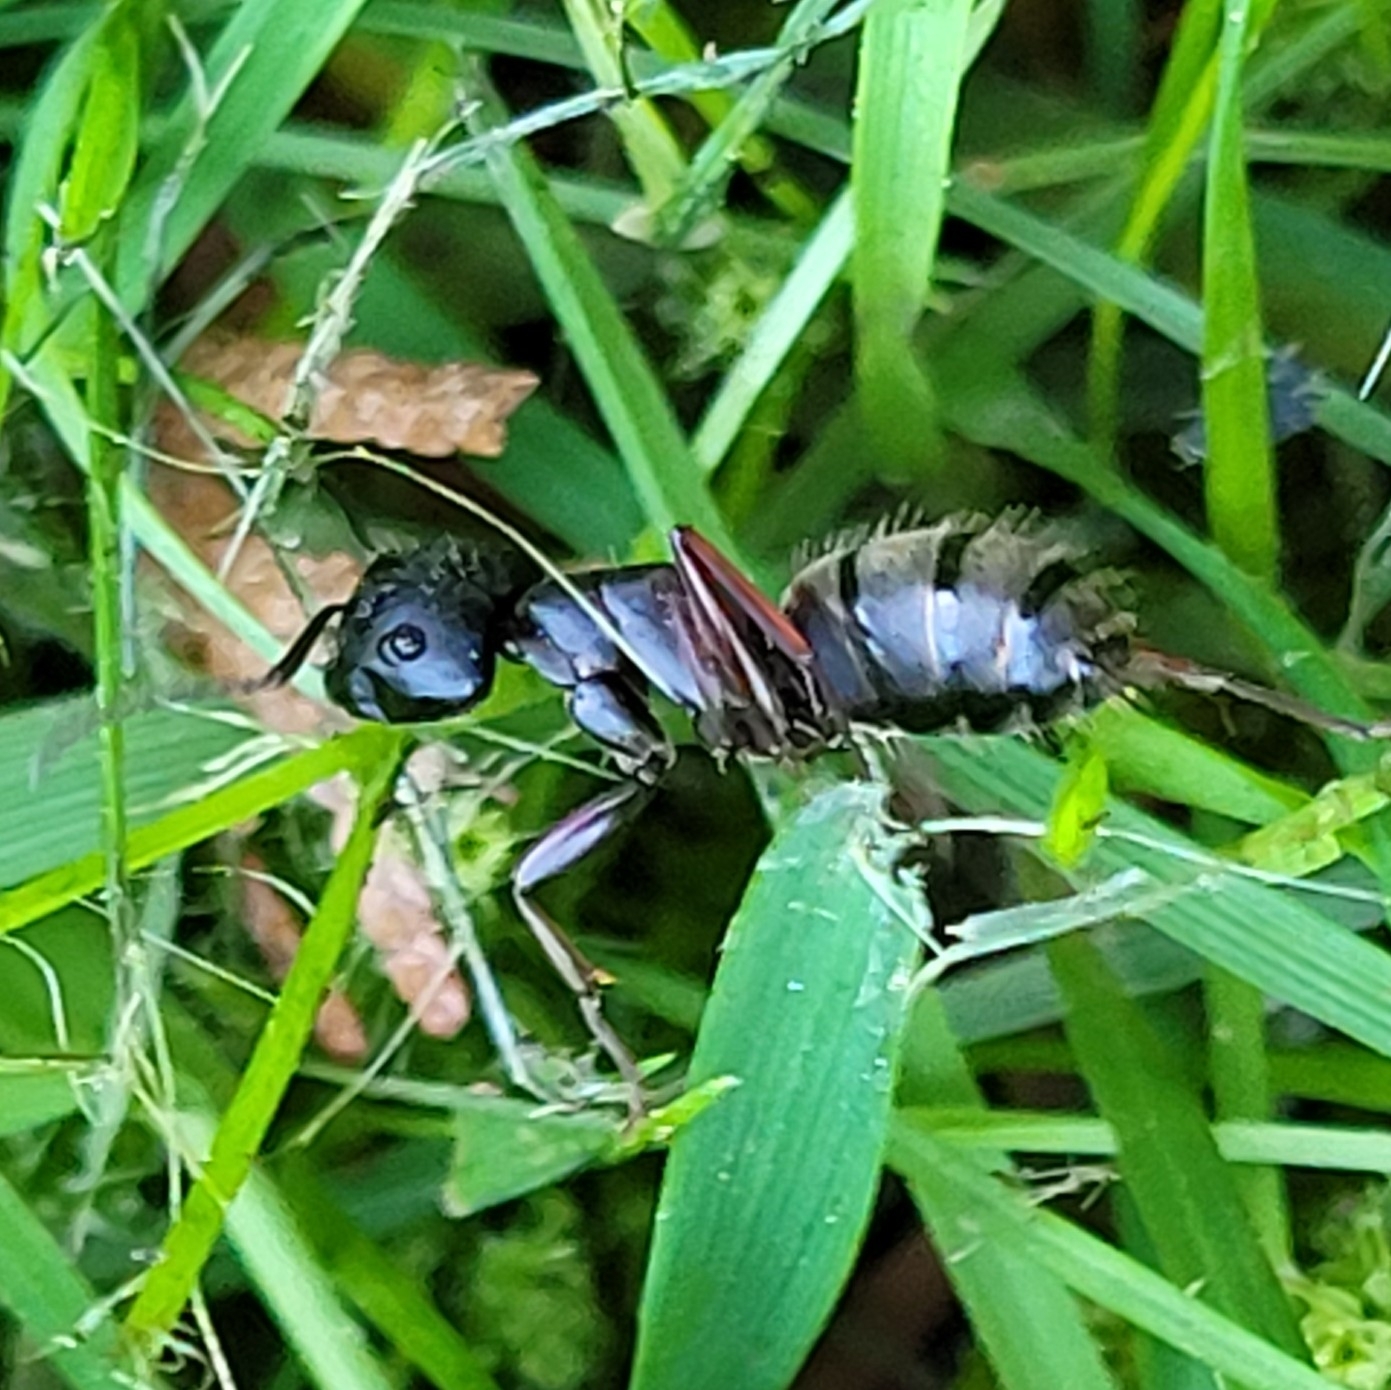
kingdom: Animalia
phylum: Arthropoda
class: Insecta
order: Hymenoptera
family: Formicidae
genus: Camponotus
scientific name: Camponotus modoc
